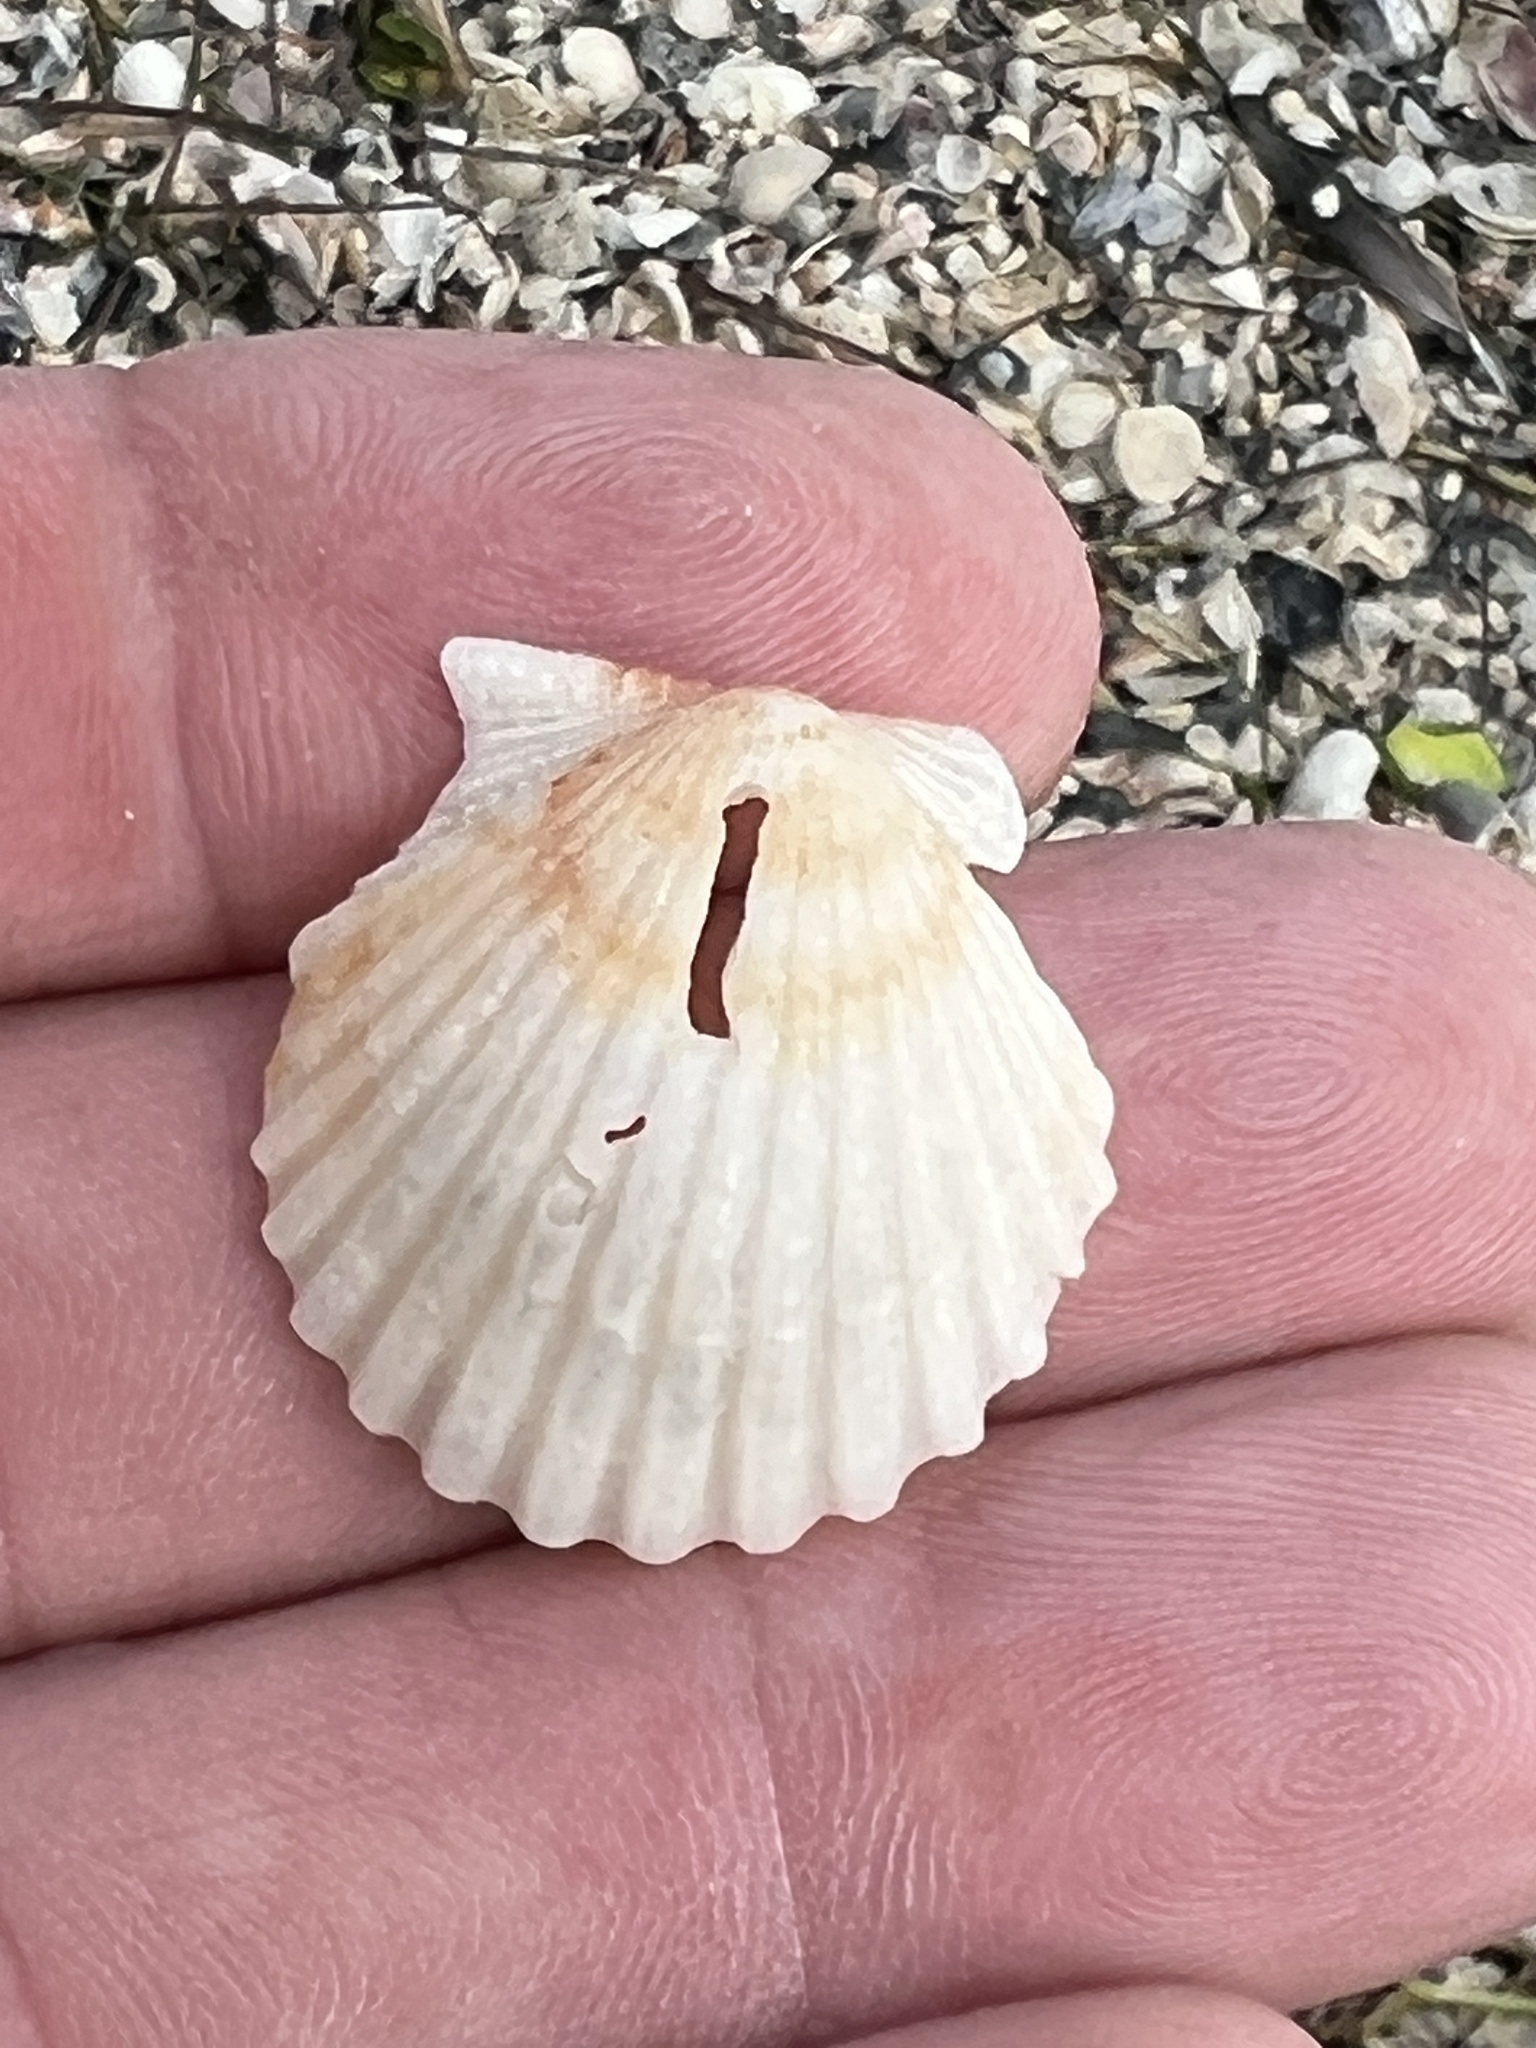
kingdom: Animalia
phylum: Mollusca
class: Bivalvia
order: Pectinida
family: Pectinidae
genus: Argopecten
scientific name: Argopecten irradians
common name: Atlantic bay scallop
